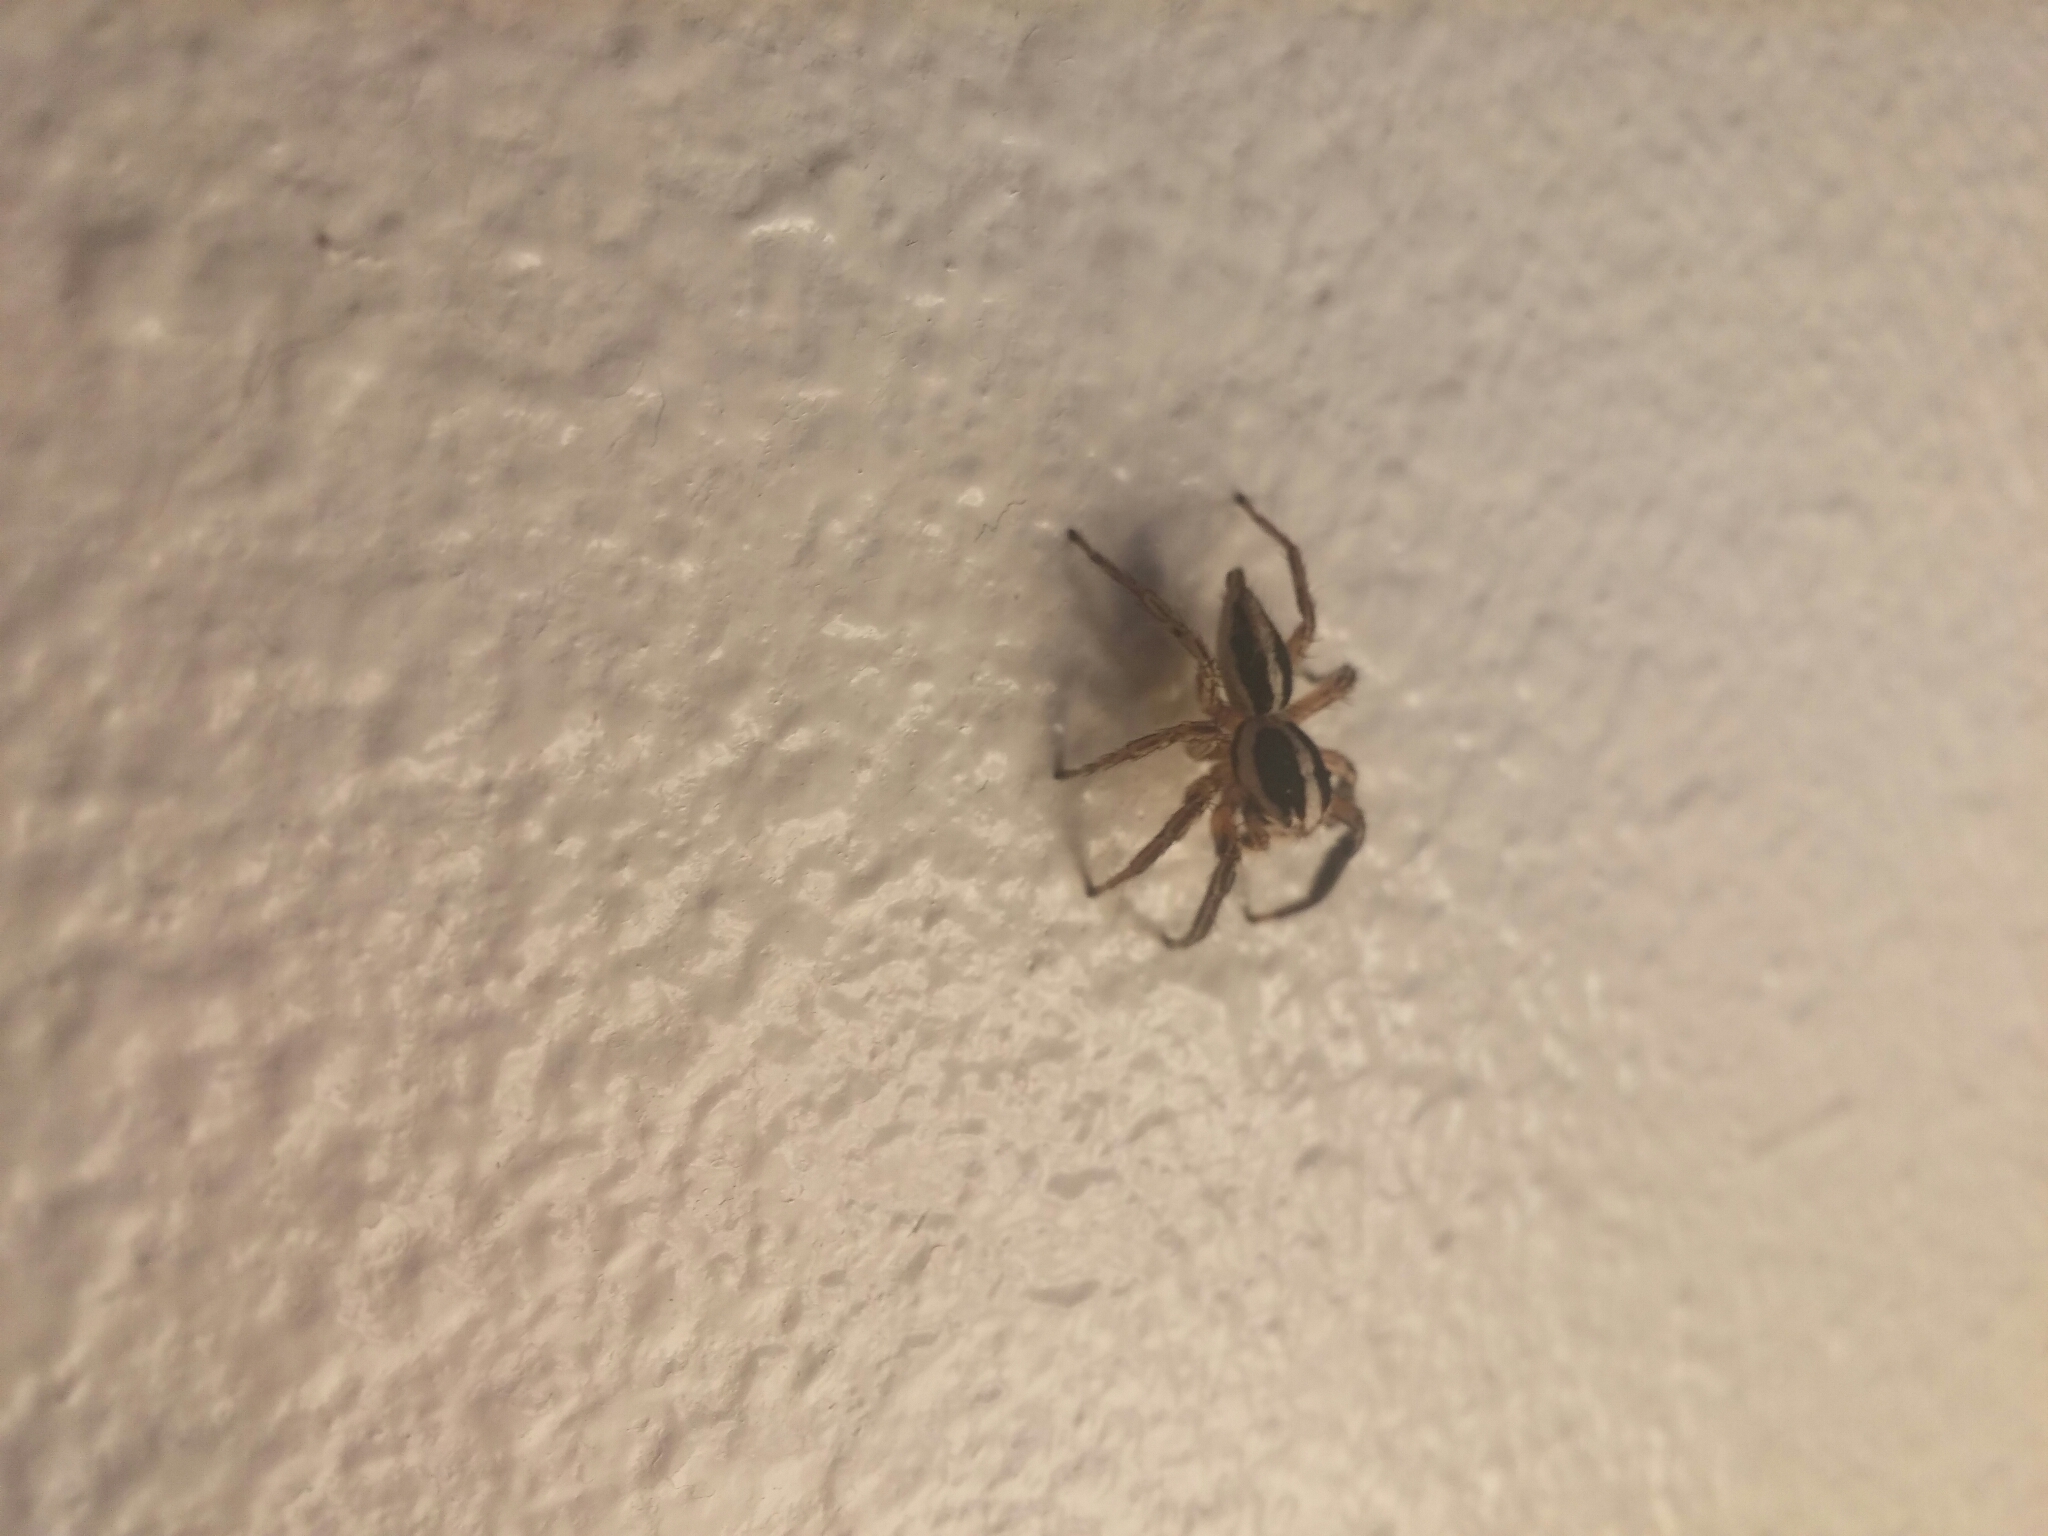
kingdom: Animalia
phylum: Arthropoda
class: Arachnida
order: Araneae
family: Salticidae
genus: Plexippus
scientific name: Plexippus paykulli
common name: Pantropical jumper
